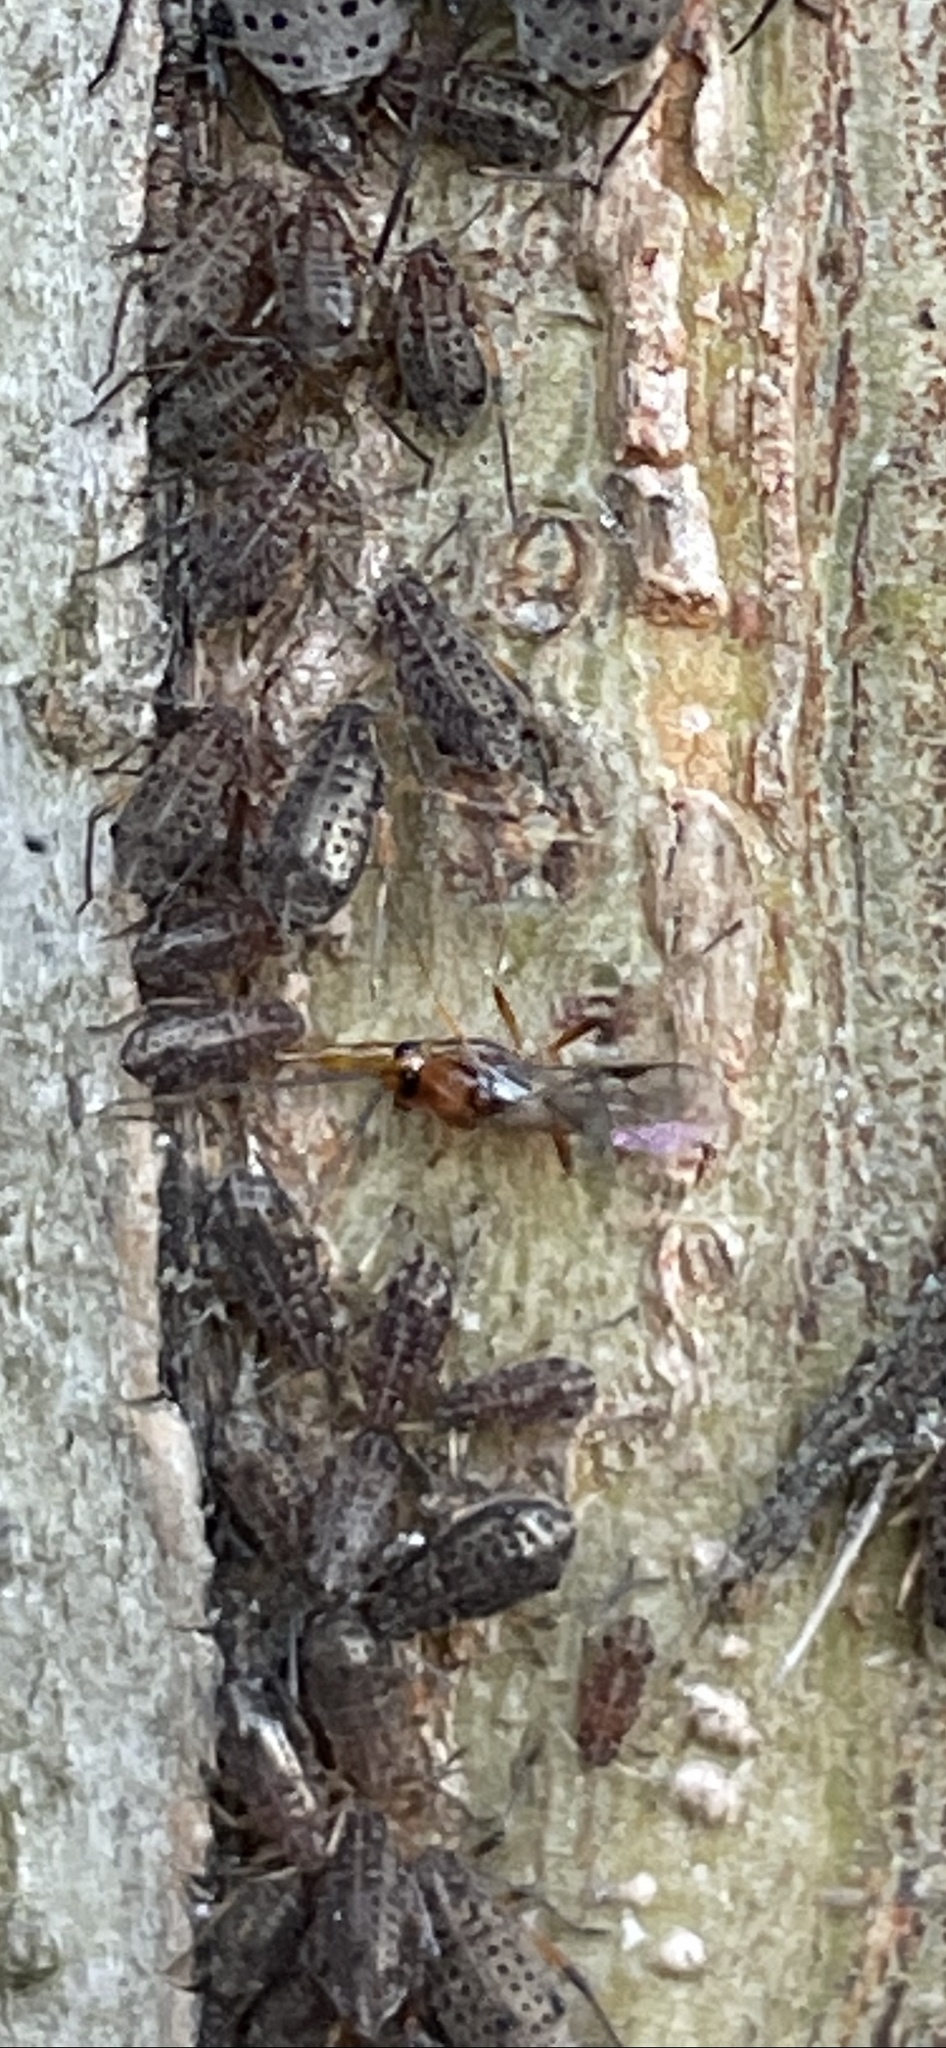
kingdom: Animalia
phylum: Arthropoda
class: Insecta
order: Hymenoptera
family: Braconidae
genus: Pauesia
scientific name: Pauesia nigrovaria
